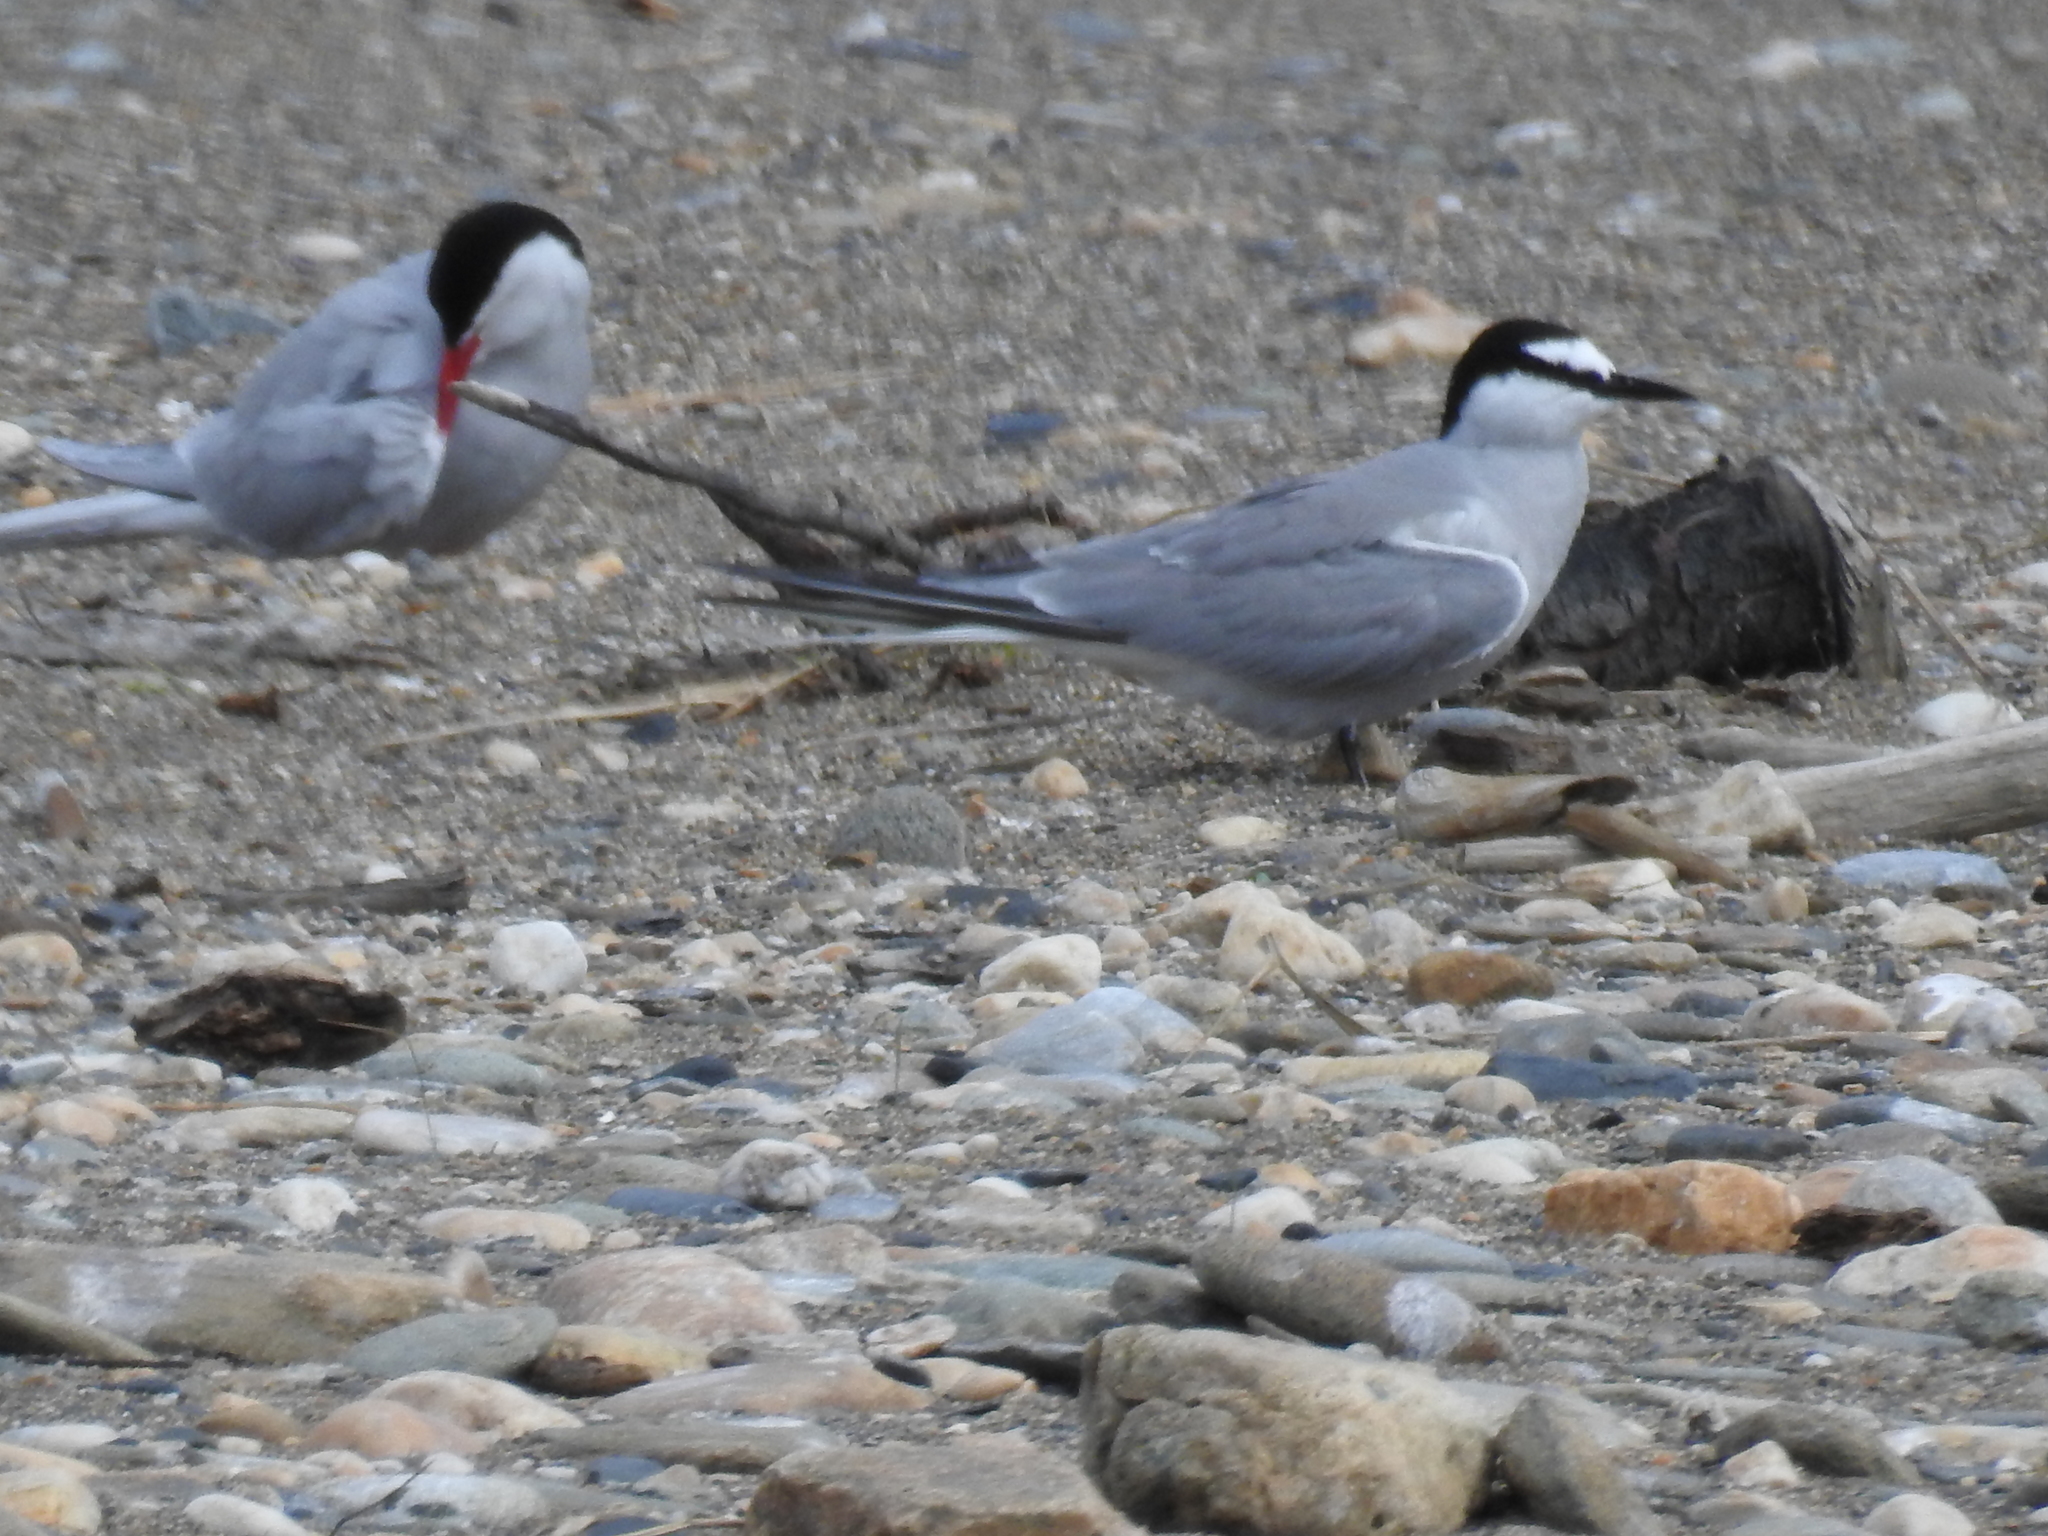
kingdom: Animalia
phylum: Chordata
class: Aves
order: Charadriiformes
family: Laridae
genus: Sterna
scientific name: Sterna paradisaea
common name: Arctic tern
